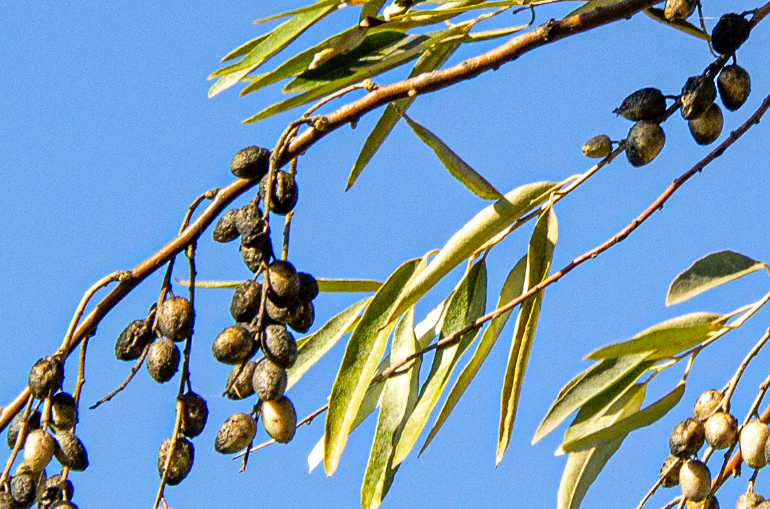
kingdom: Plantae
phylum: Tracheophyta
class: Magnoliopsida
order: Rosales
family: Elaeagnaceae
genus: Elaeagnus
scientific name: Elaeagnus angustifolia
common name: Russian olive
